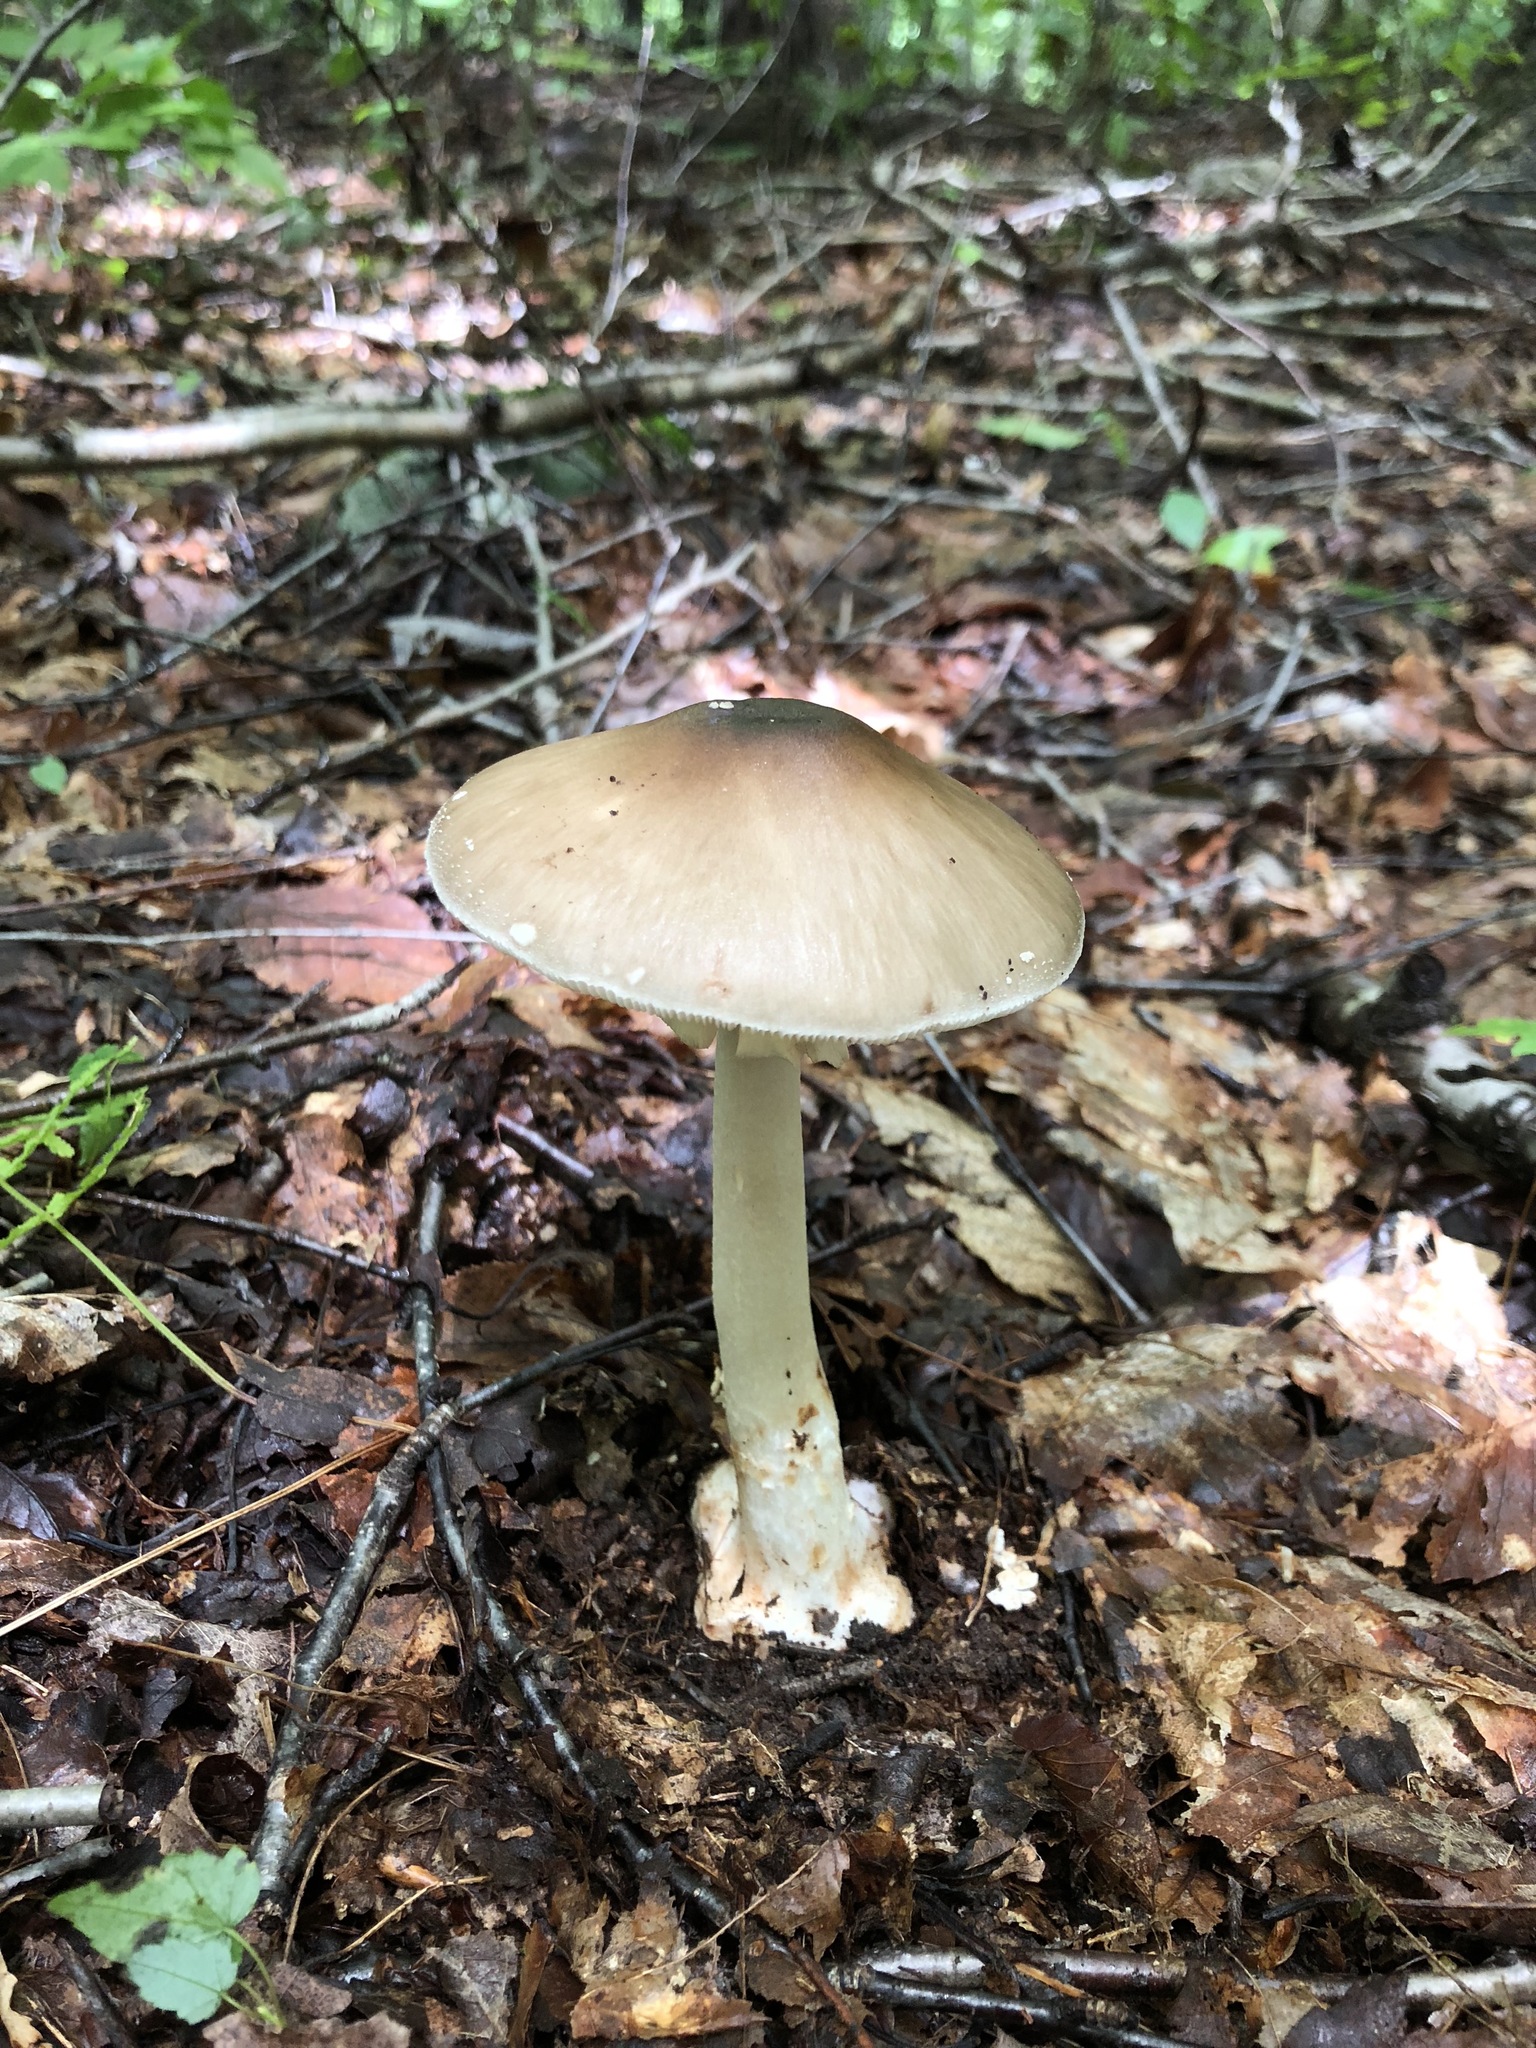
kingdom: Fungi
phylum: Basidiomycota
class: Agaricomycetes
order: Agaricales
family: Amanitaceae
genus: Amanita
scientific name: Amanita brunnescens
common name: Brown american star-footed amanita
